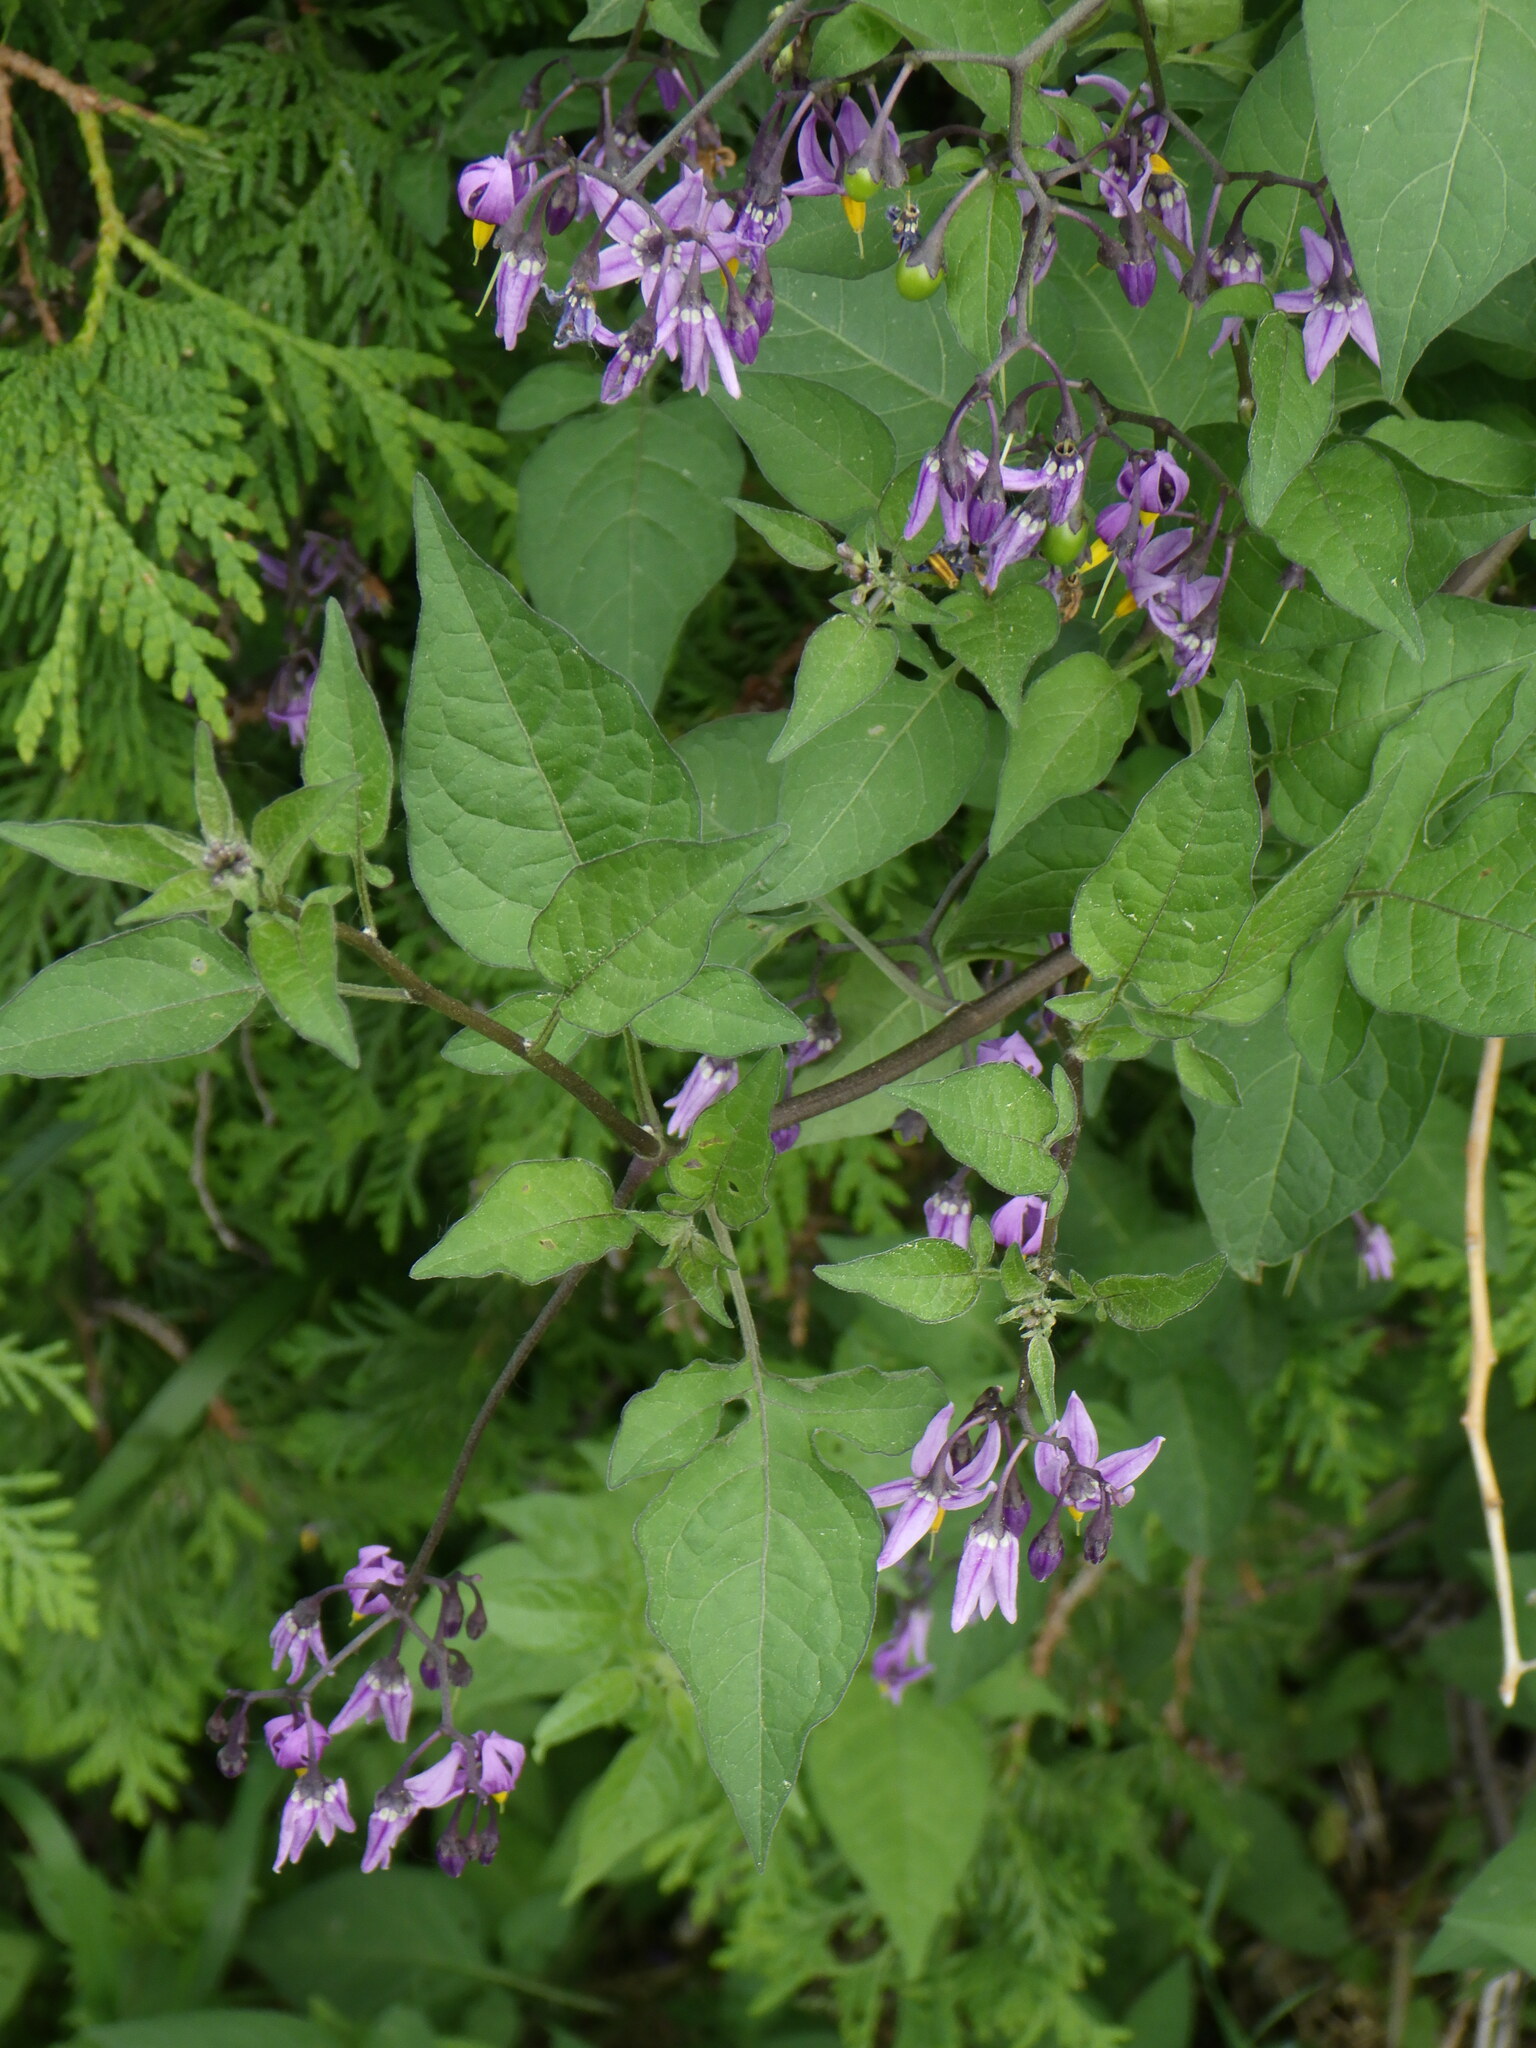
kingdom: Plantae
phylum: Tracheophyta
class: Magnoliopsida
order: Solanales
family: Solanaceae
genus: Solanum
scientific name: Solanum dulcamara
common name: Climbing nightshade
